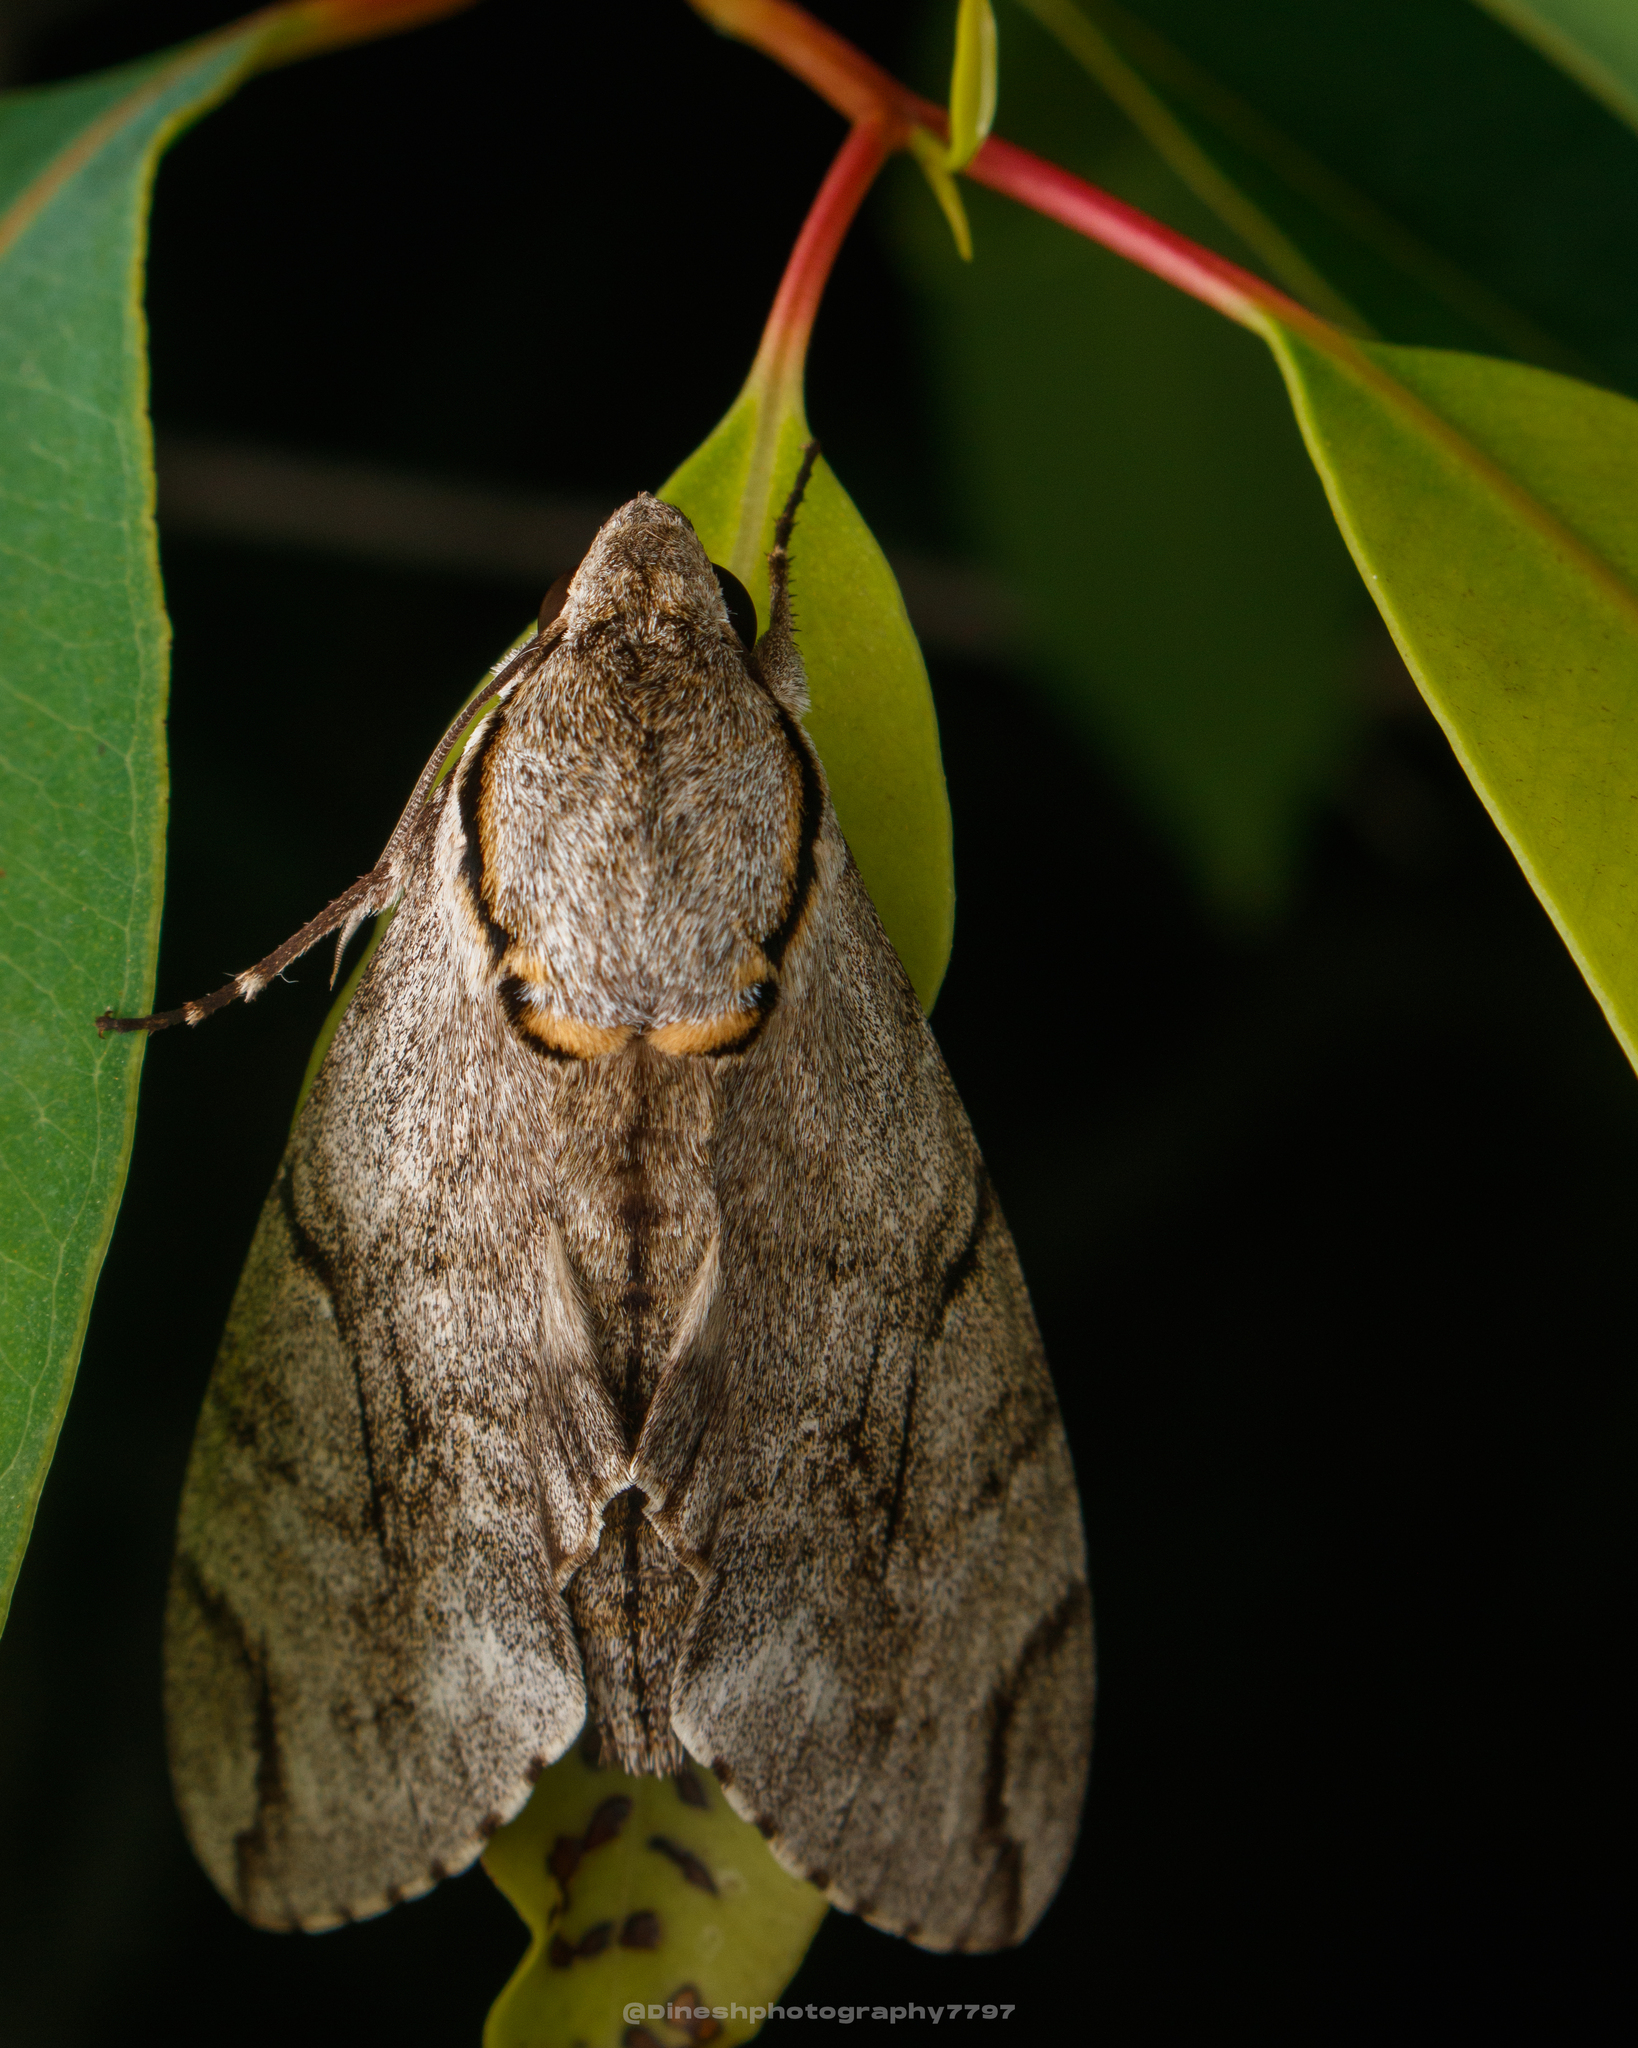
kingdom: Animalia
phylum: Arthropoda
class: Insecta
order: Lepidoptera
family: Sphingidae
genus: Psilogramma
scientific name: Psilogramma increta
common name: Gray hawk moth
